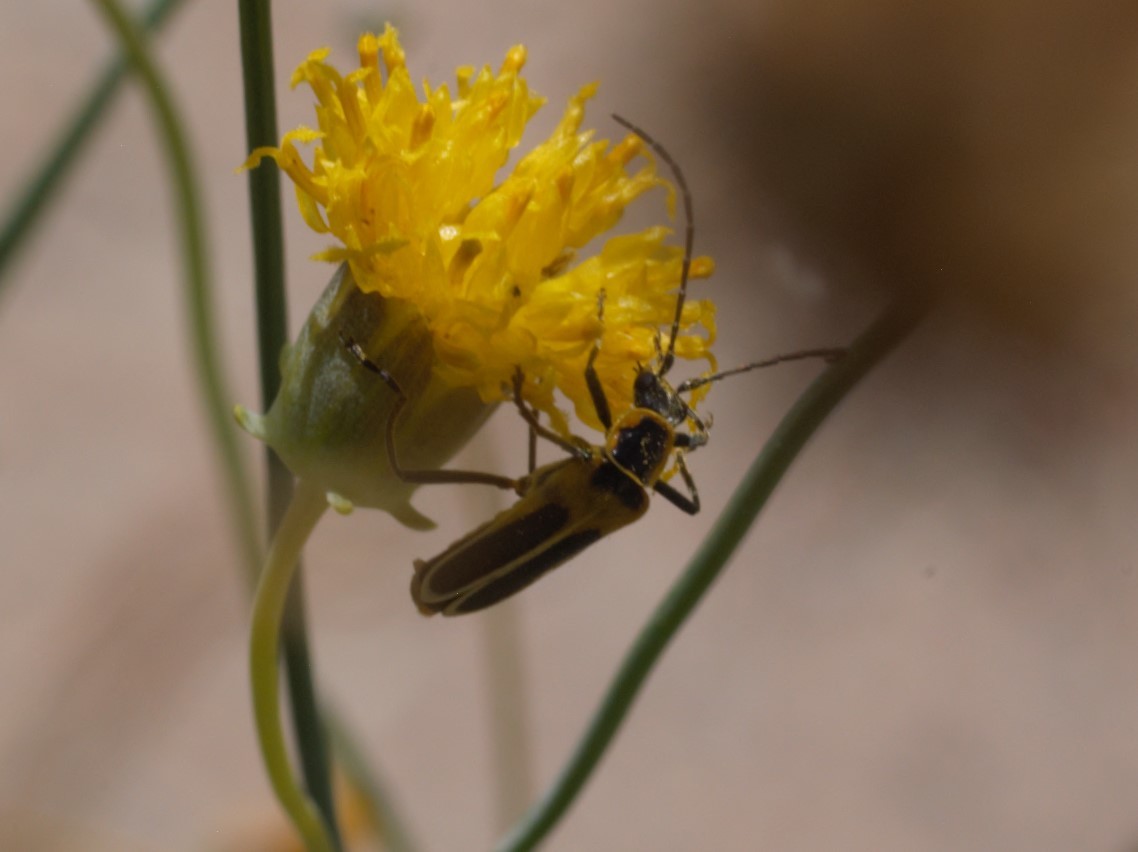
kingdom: Animalia
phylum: Arthropoda
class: Insecta
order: Coleoptera
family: Cantharidae
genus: Chauliognathus
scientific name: Chauliognathus lewisi
